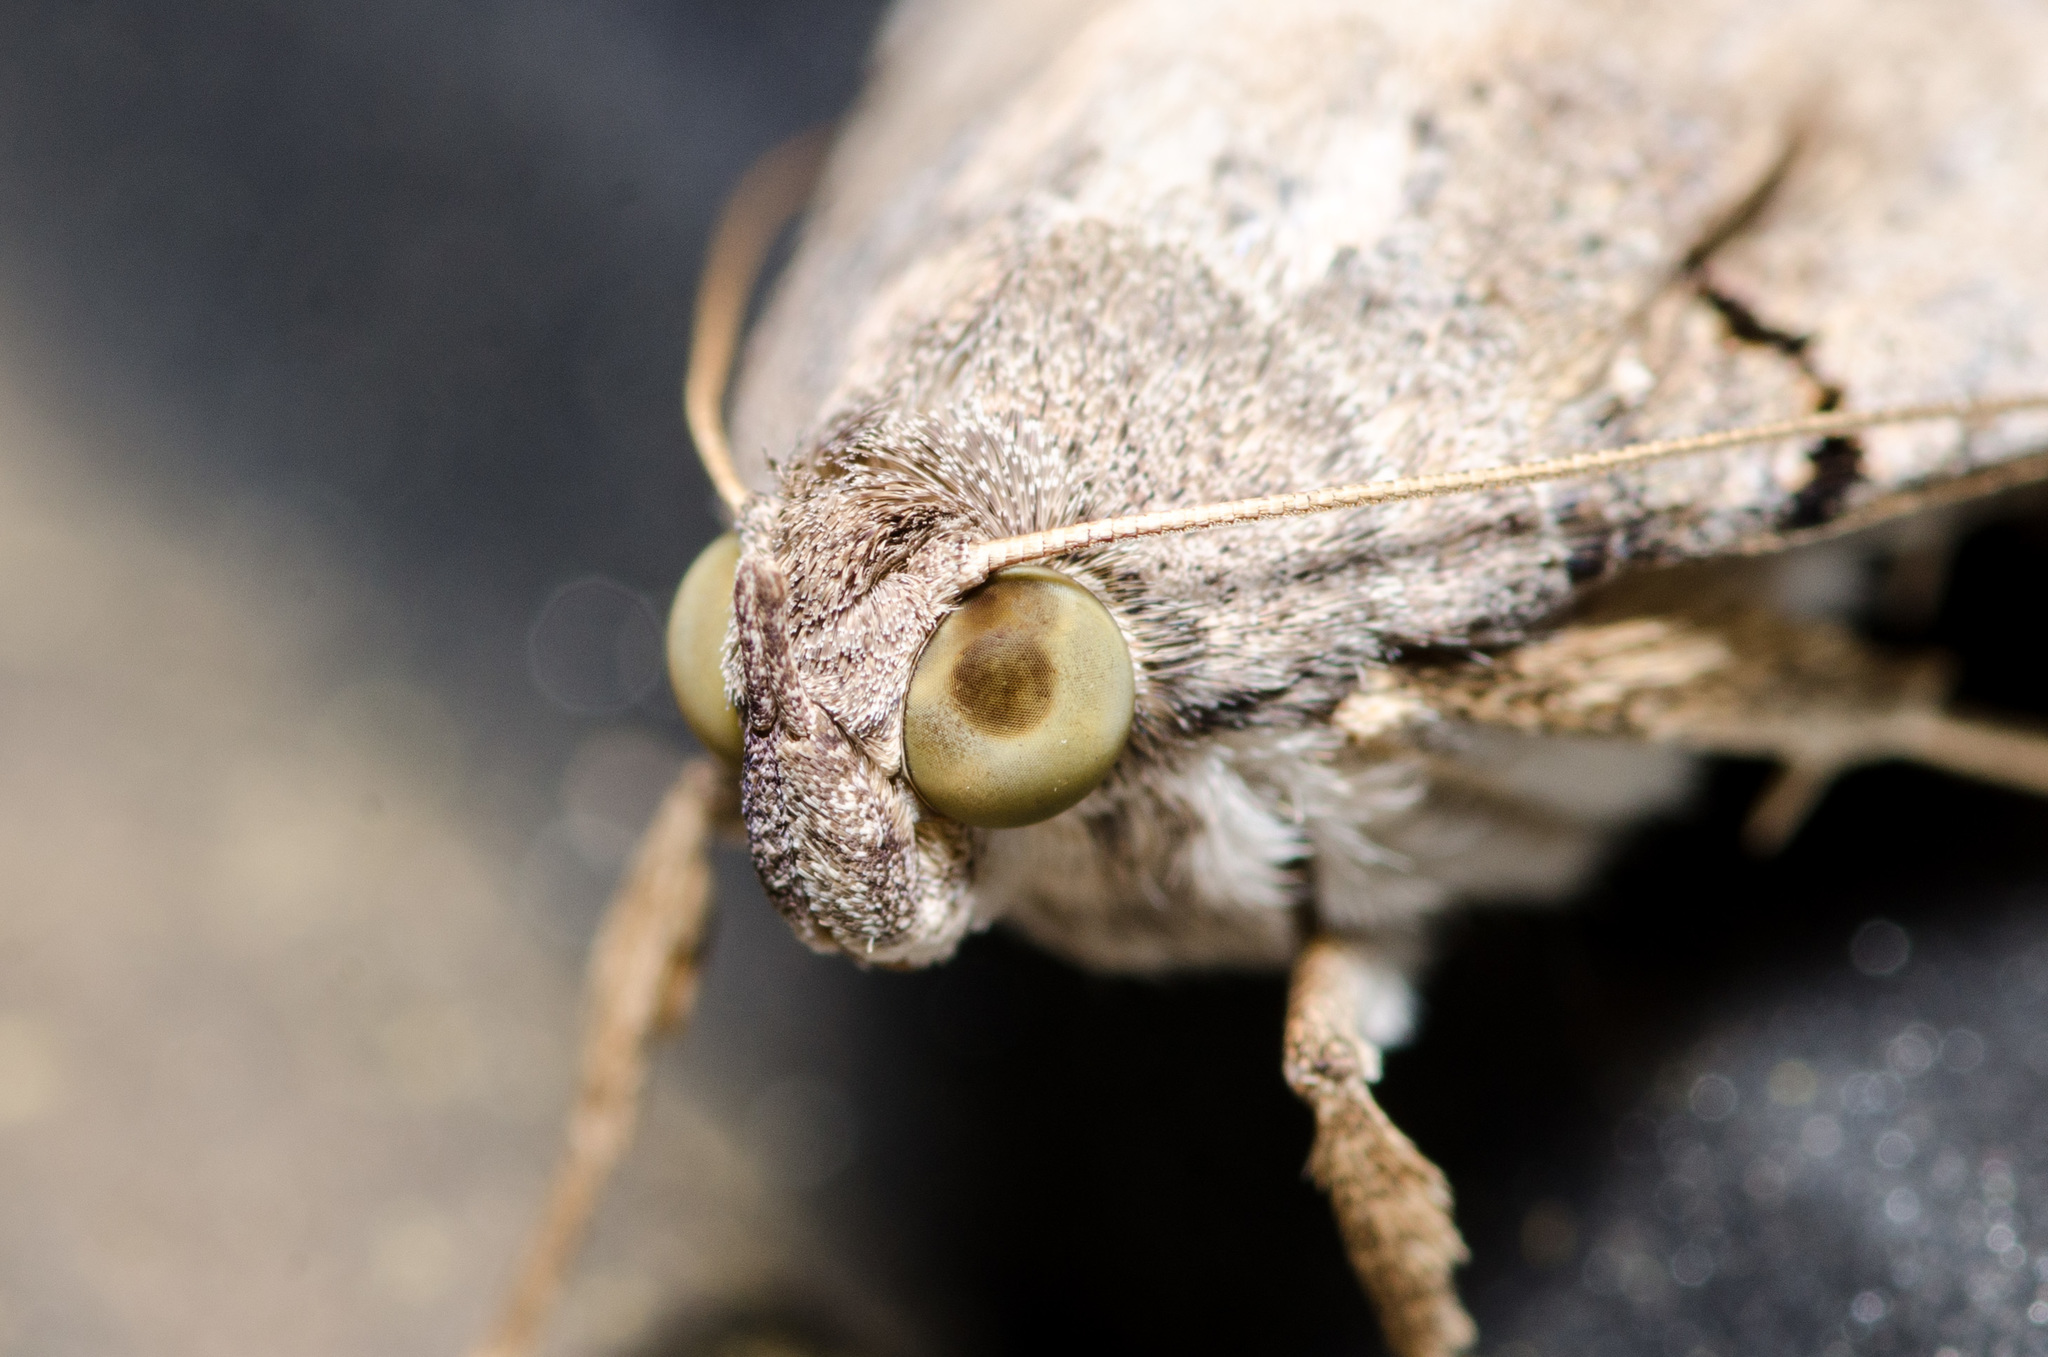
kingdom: Animalia
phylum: Arthropoda
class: Insecta
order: Lepidoptera
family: Erebidae
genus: Melipotis
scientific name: Melipotis indomita
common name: Moth
